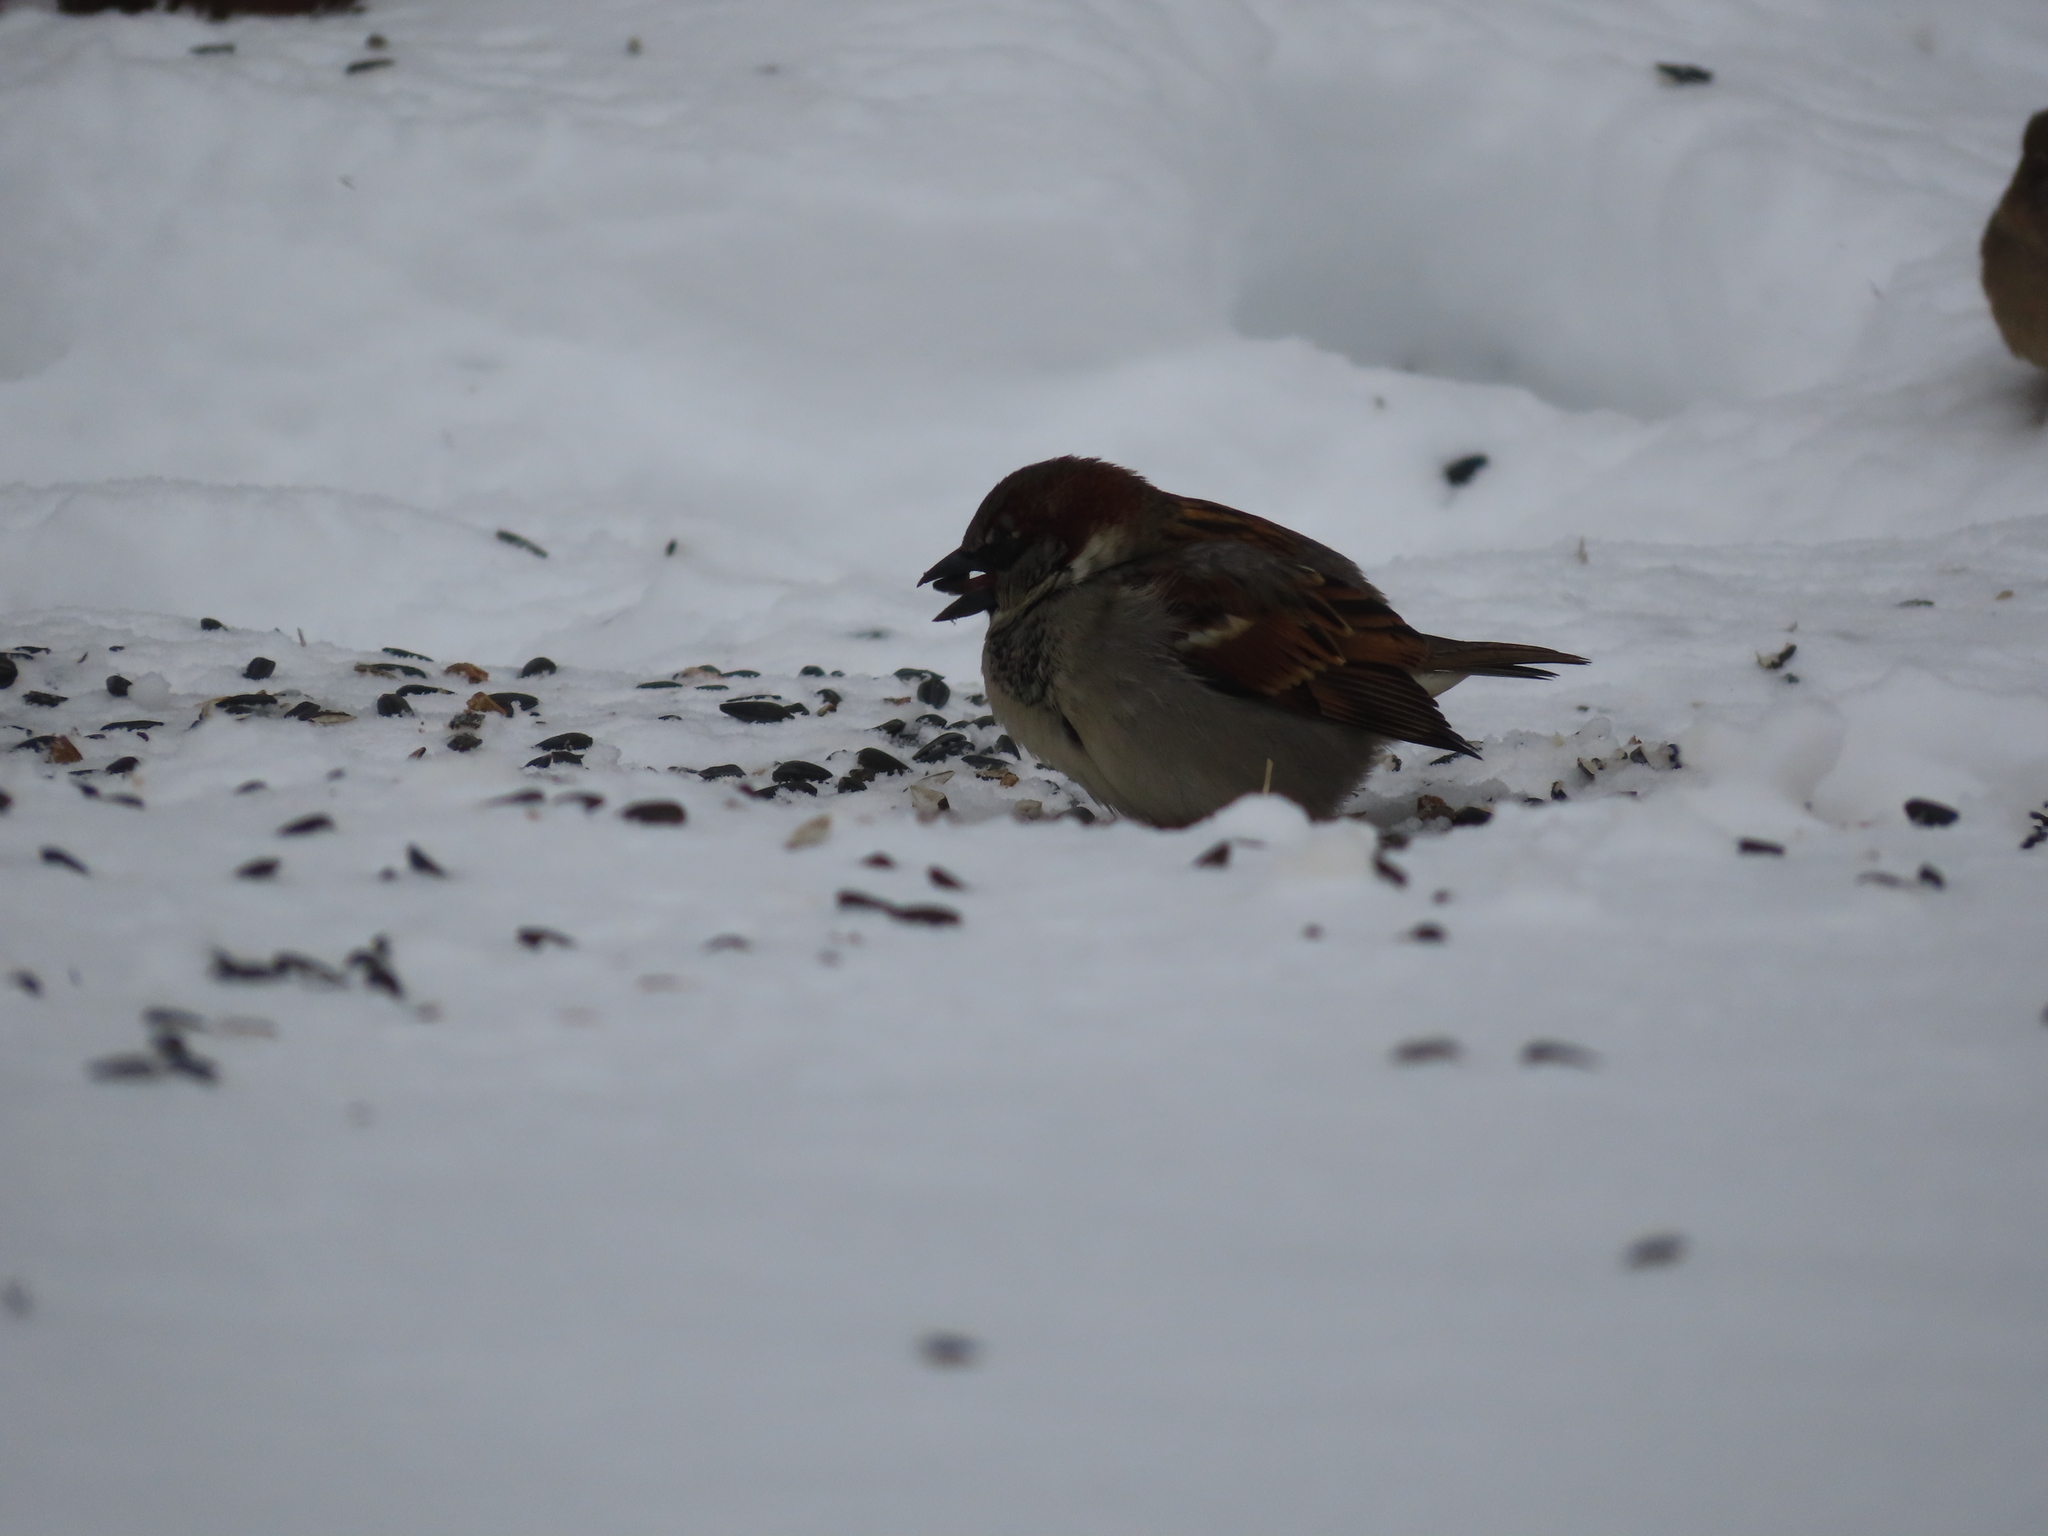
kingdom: Animalia
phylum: Chordata
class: Aves
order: Passeriformes
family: Passeridae
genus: Passer
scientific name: Passer domesticus
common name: House sparrow
